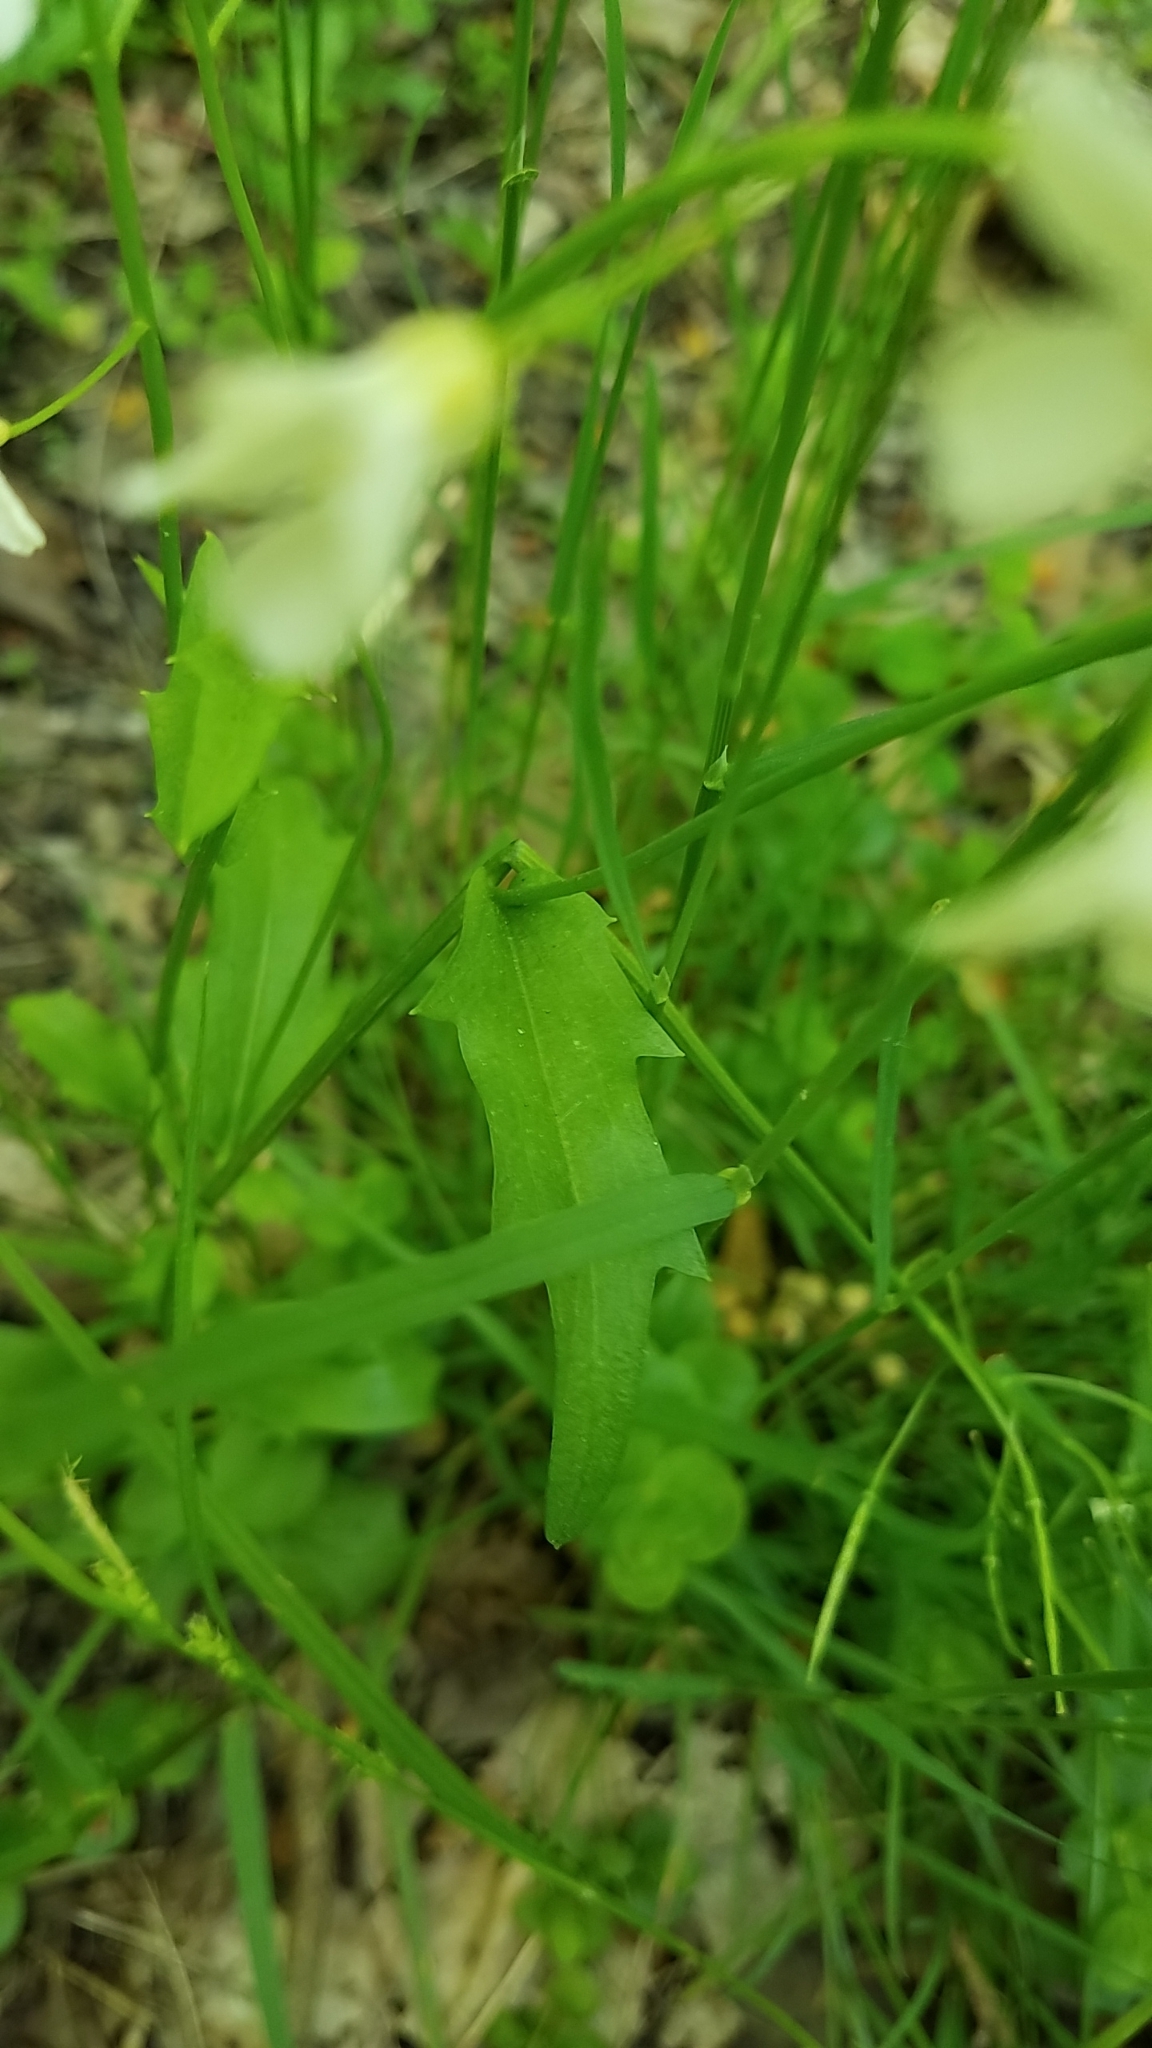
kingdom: Plantae
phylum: Tracheophyta
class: Magnoliopsida
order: Brassicales
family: Brassicaceae
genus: Cardamine
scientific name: Cardamine bulbosa
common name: Spring cress
